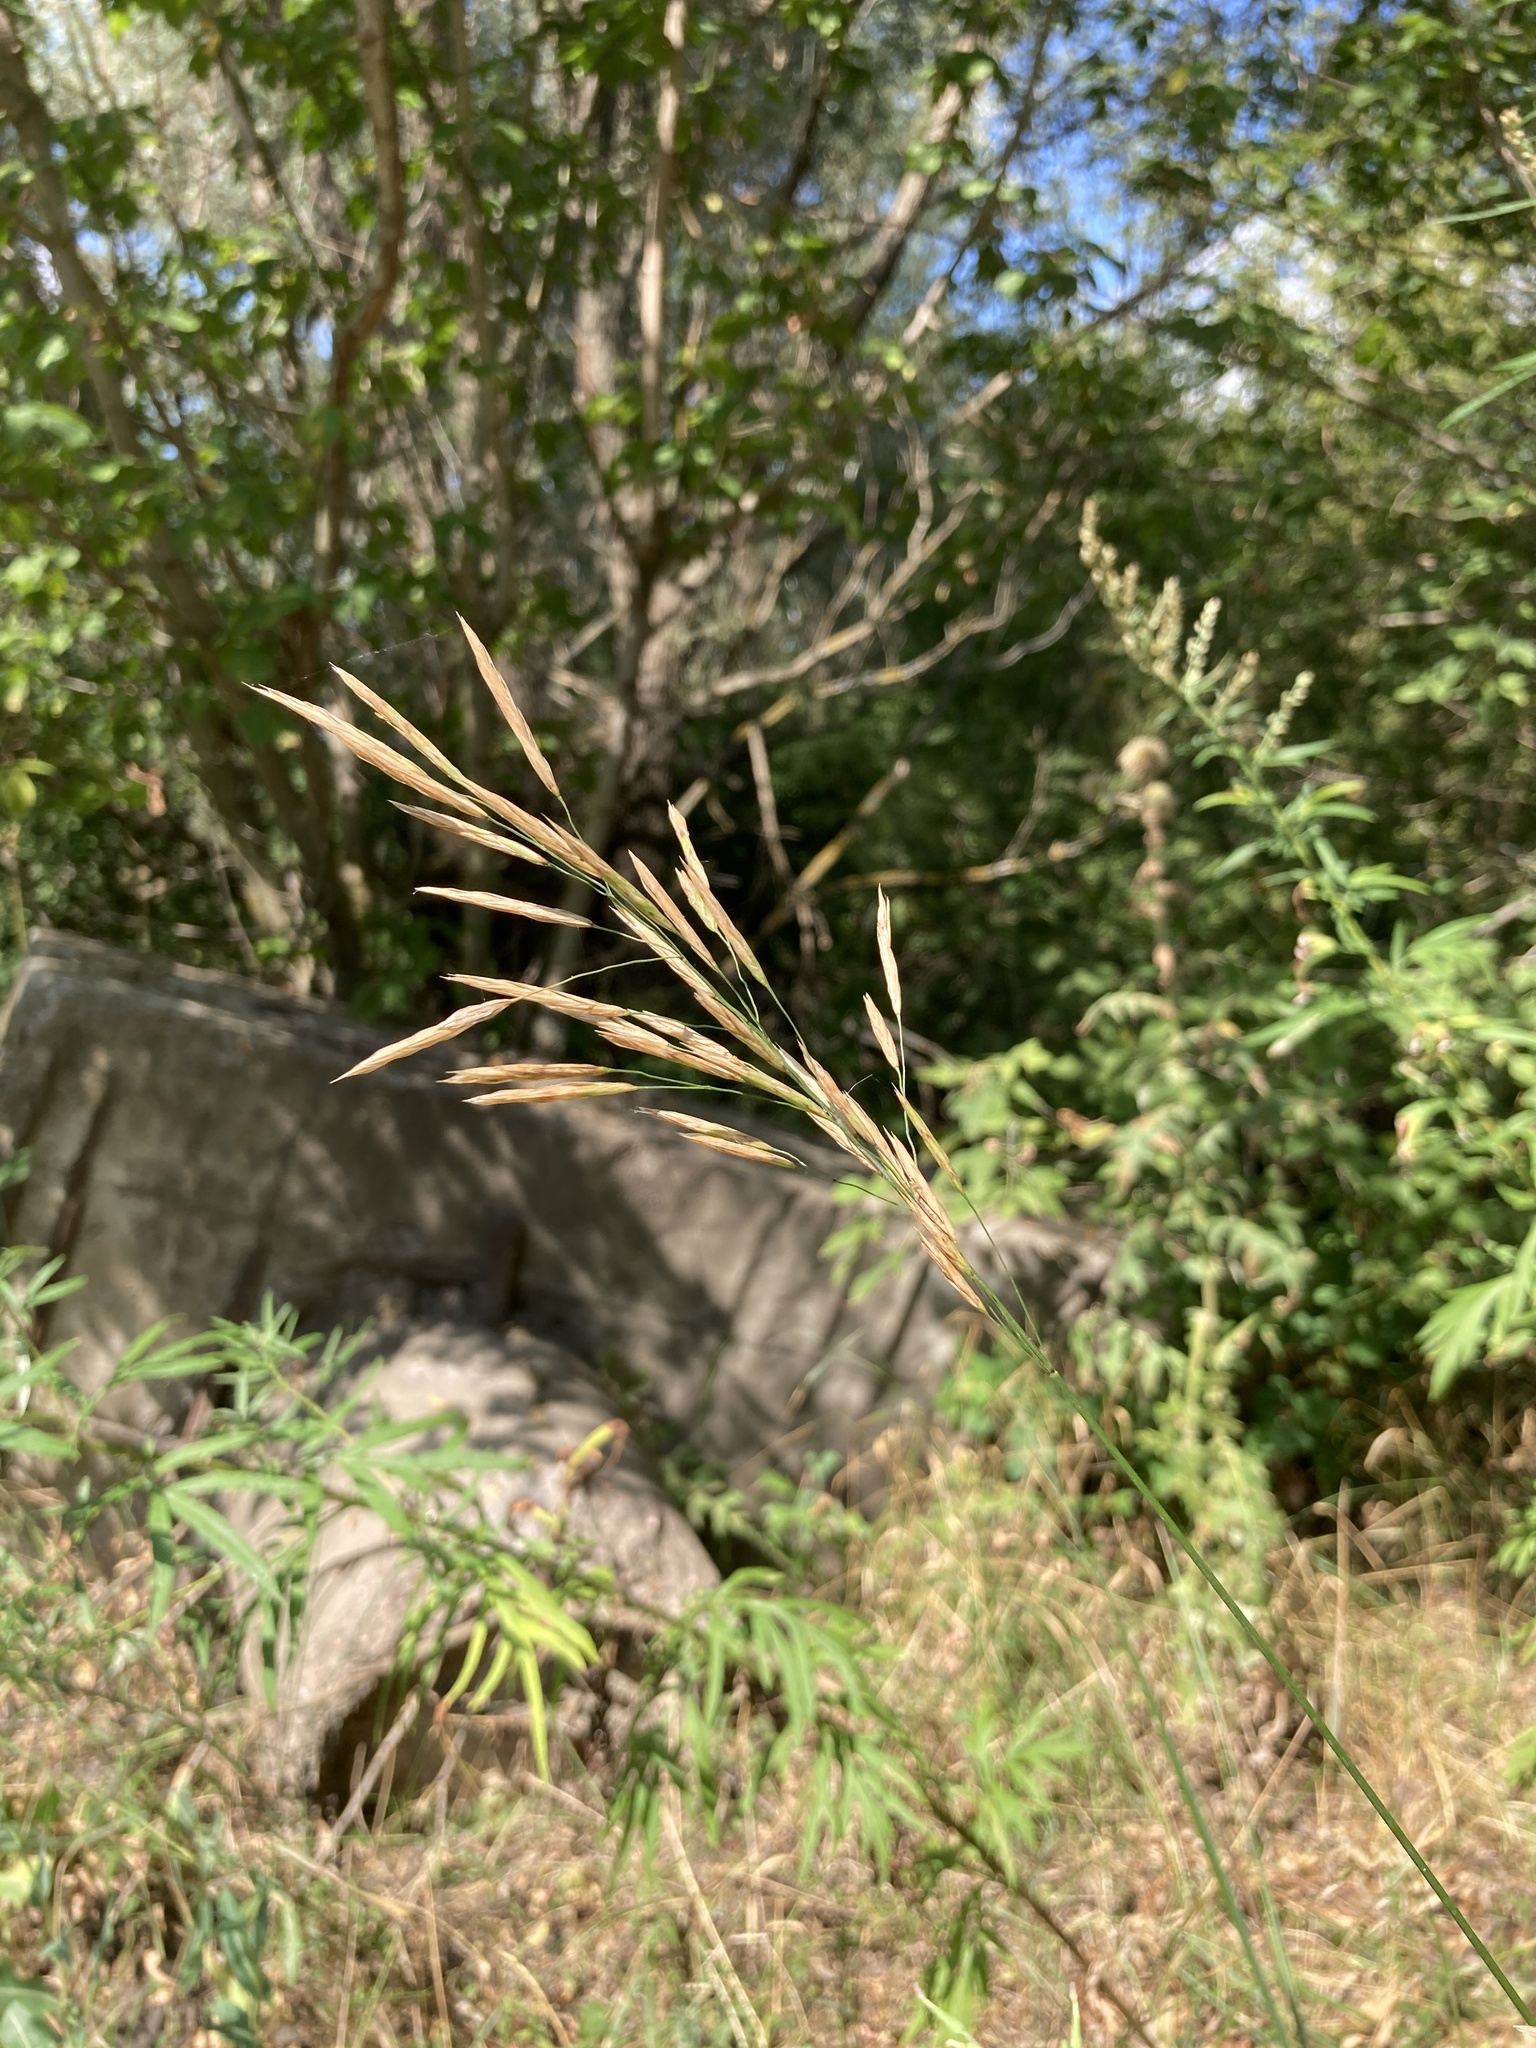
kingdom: Plantae
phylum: Tracheophyta
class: Liliopsida
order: Poales
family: Poaceae
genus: Bromus
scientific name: Bromus inermis
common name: Smooth brome
